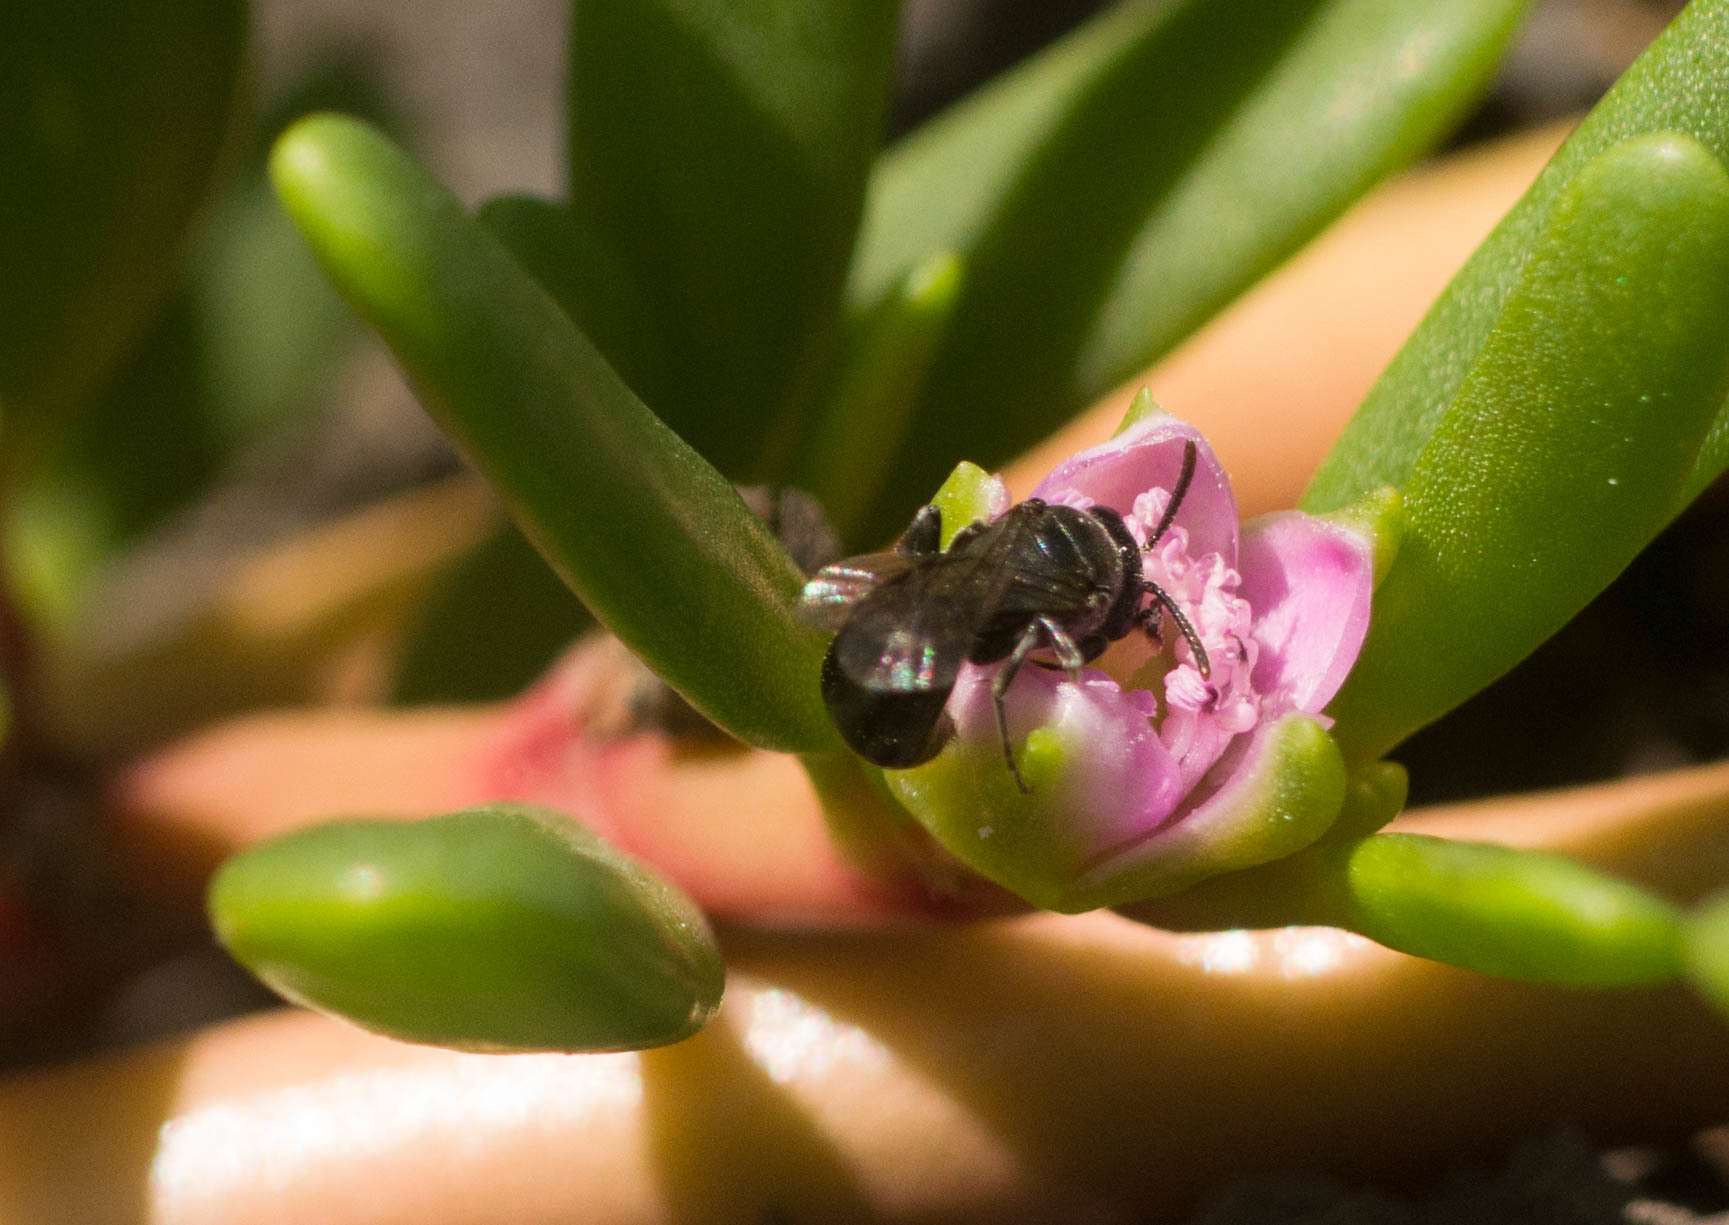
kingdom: Animalia
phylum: Arthropoda
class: Insecta
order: Hymenoptera
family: Colletidae
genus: Hylaeus
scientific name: Hylaeus anthracinus
